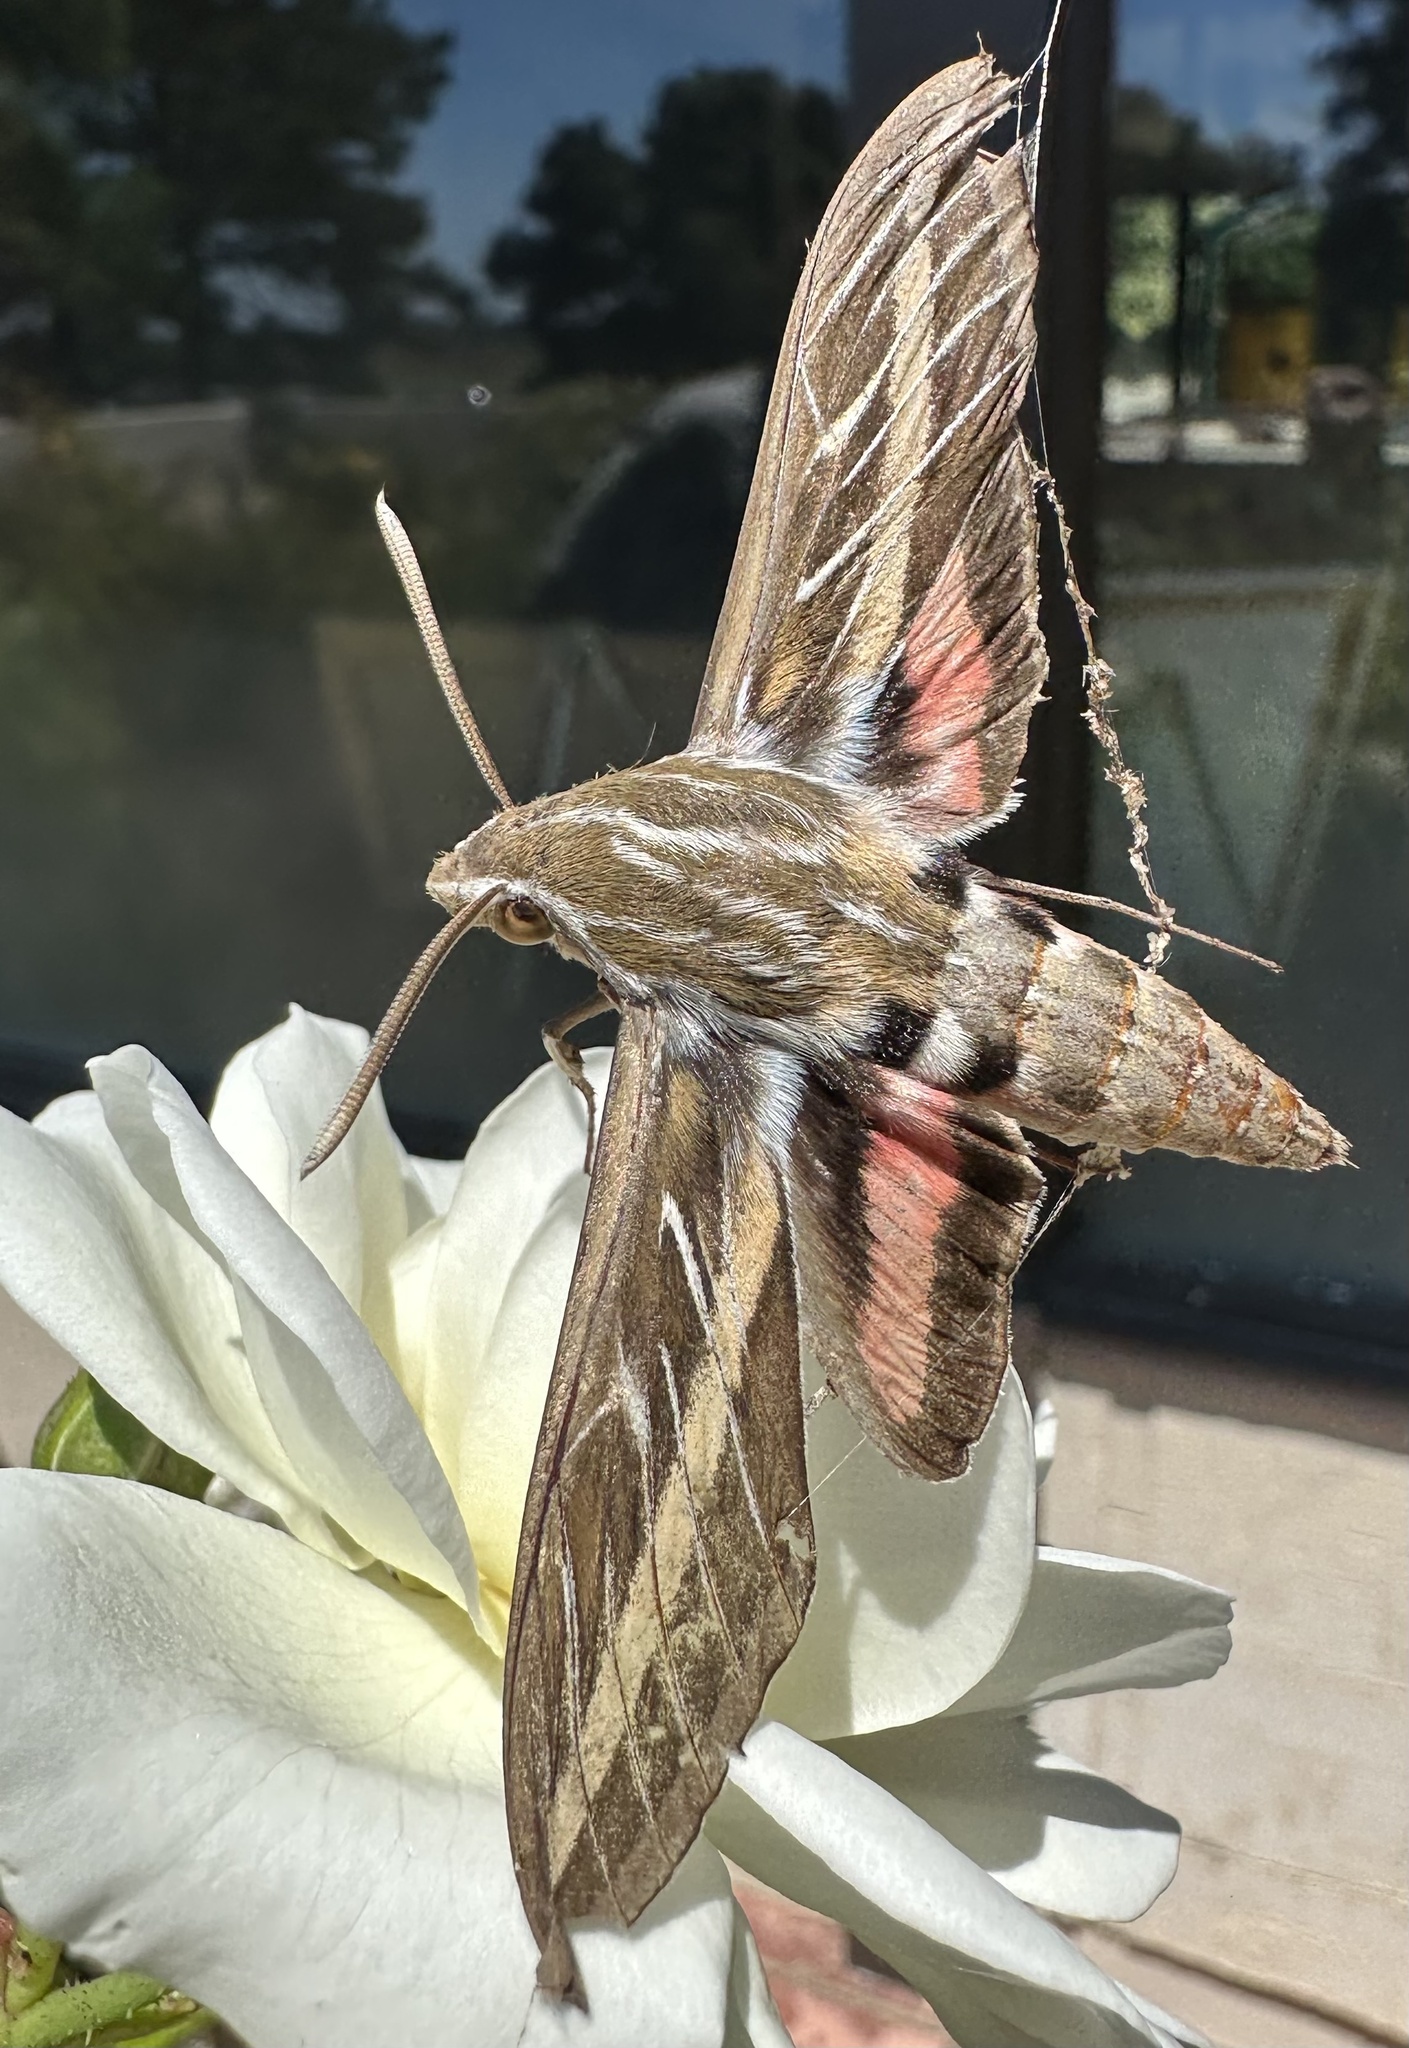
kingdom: Animalia
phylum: Arthropoda
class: Insecta
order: Lepidoptera
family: Sphingidae
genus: Hyles
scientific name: Hyles lineata
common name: White-lined sphinx
